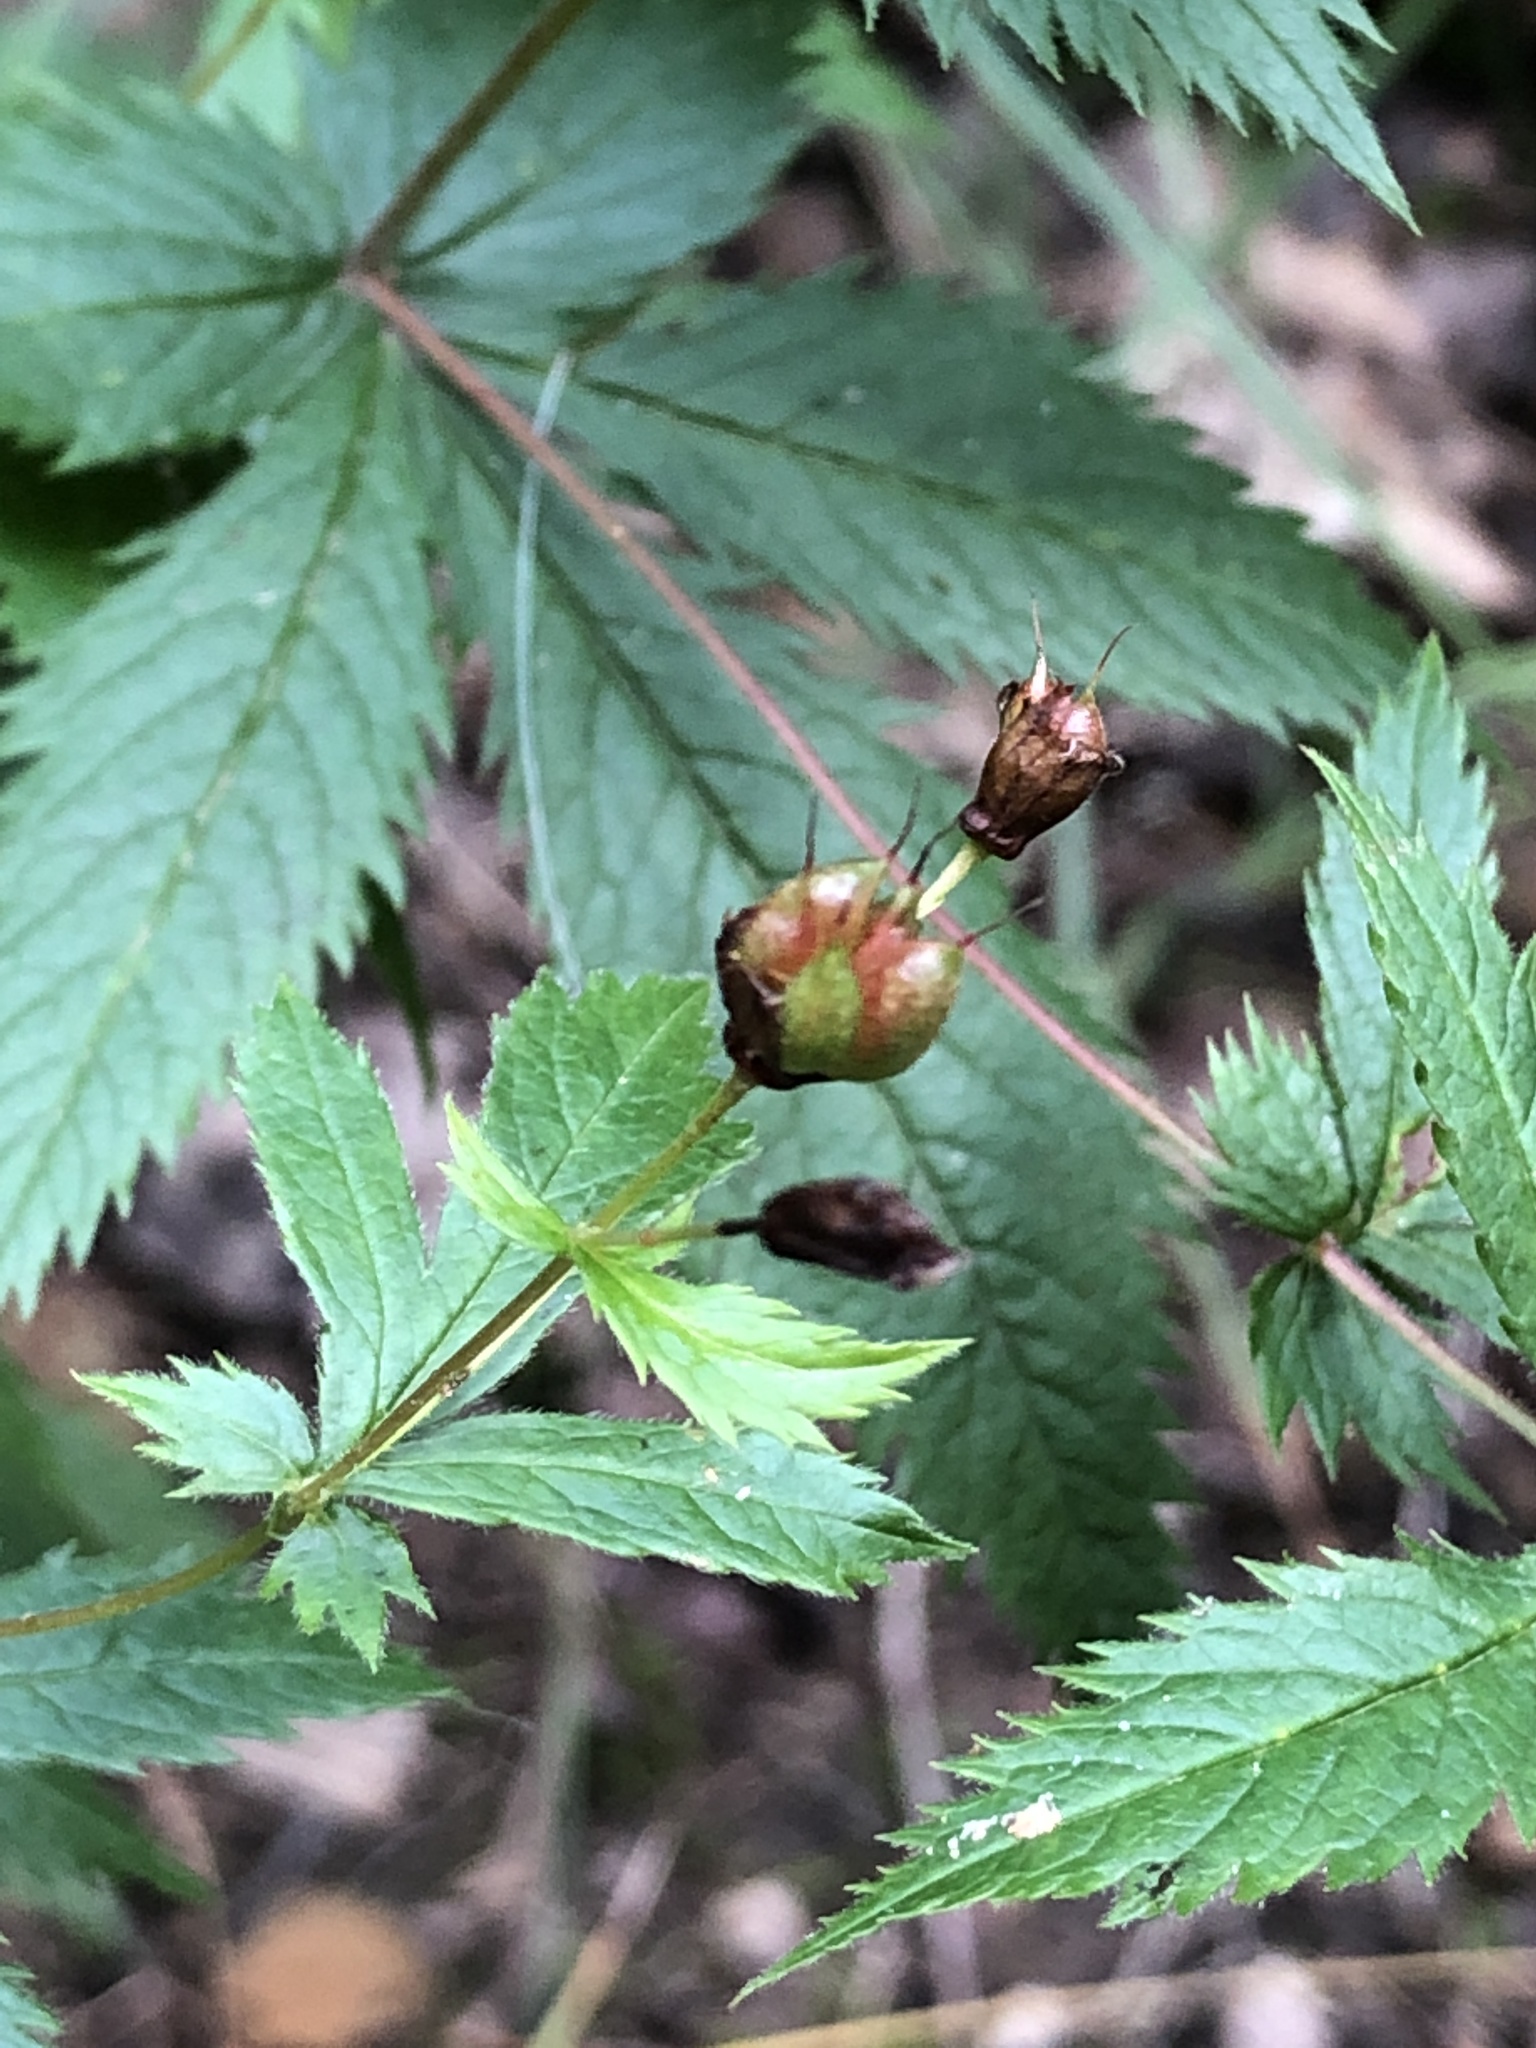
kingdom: Plantae
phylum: Tracheophyta
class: Magnoliopsida
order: Rosales
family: Rosaceae
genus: Gillenia
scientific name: Gillenia stipulata
